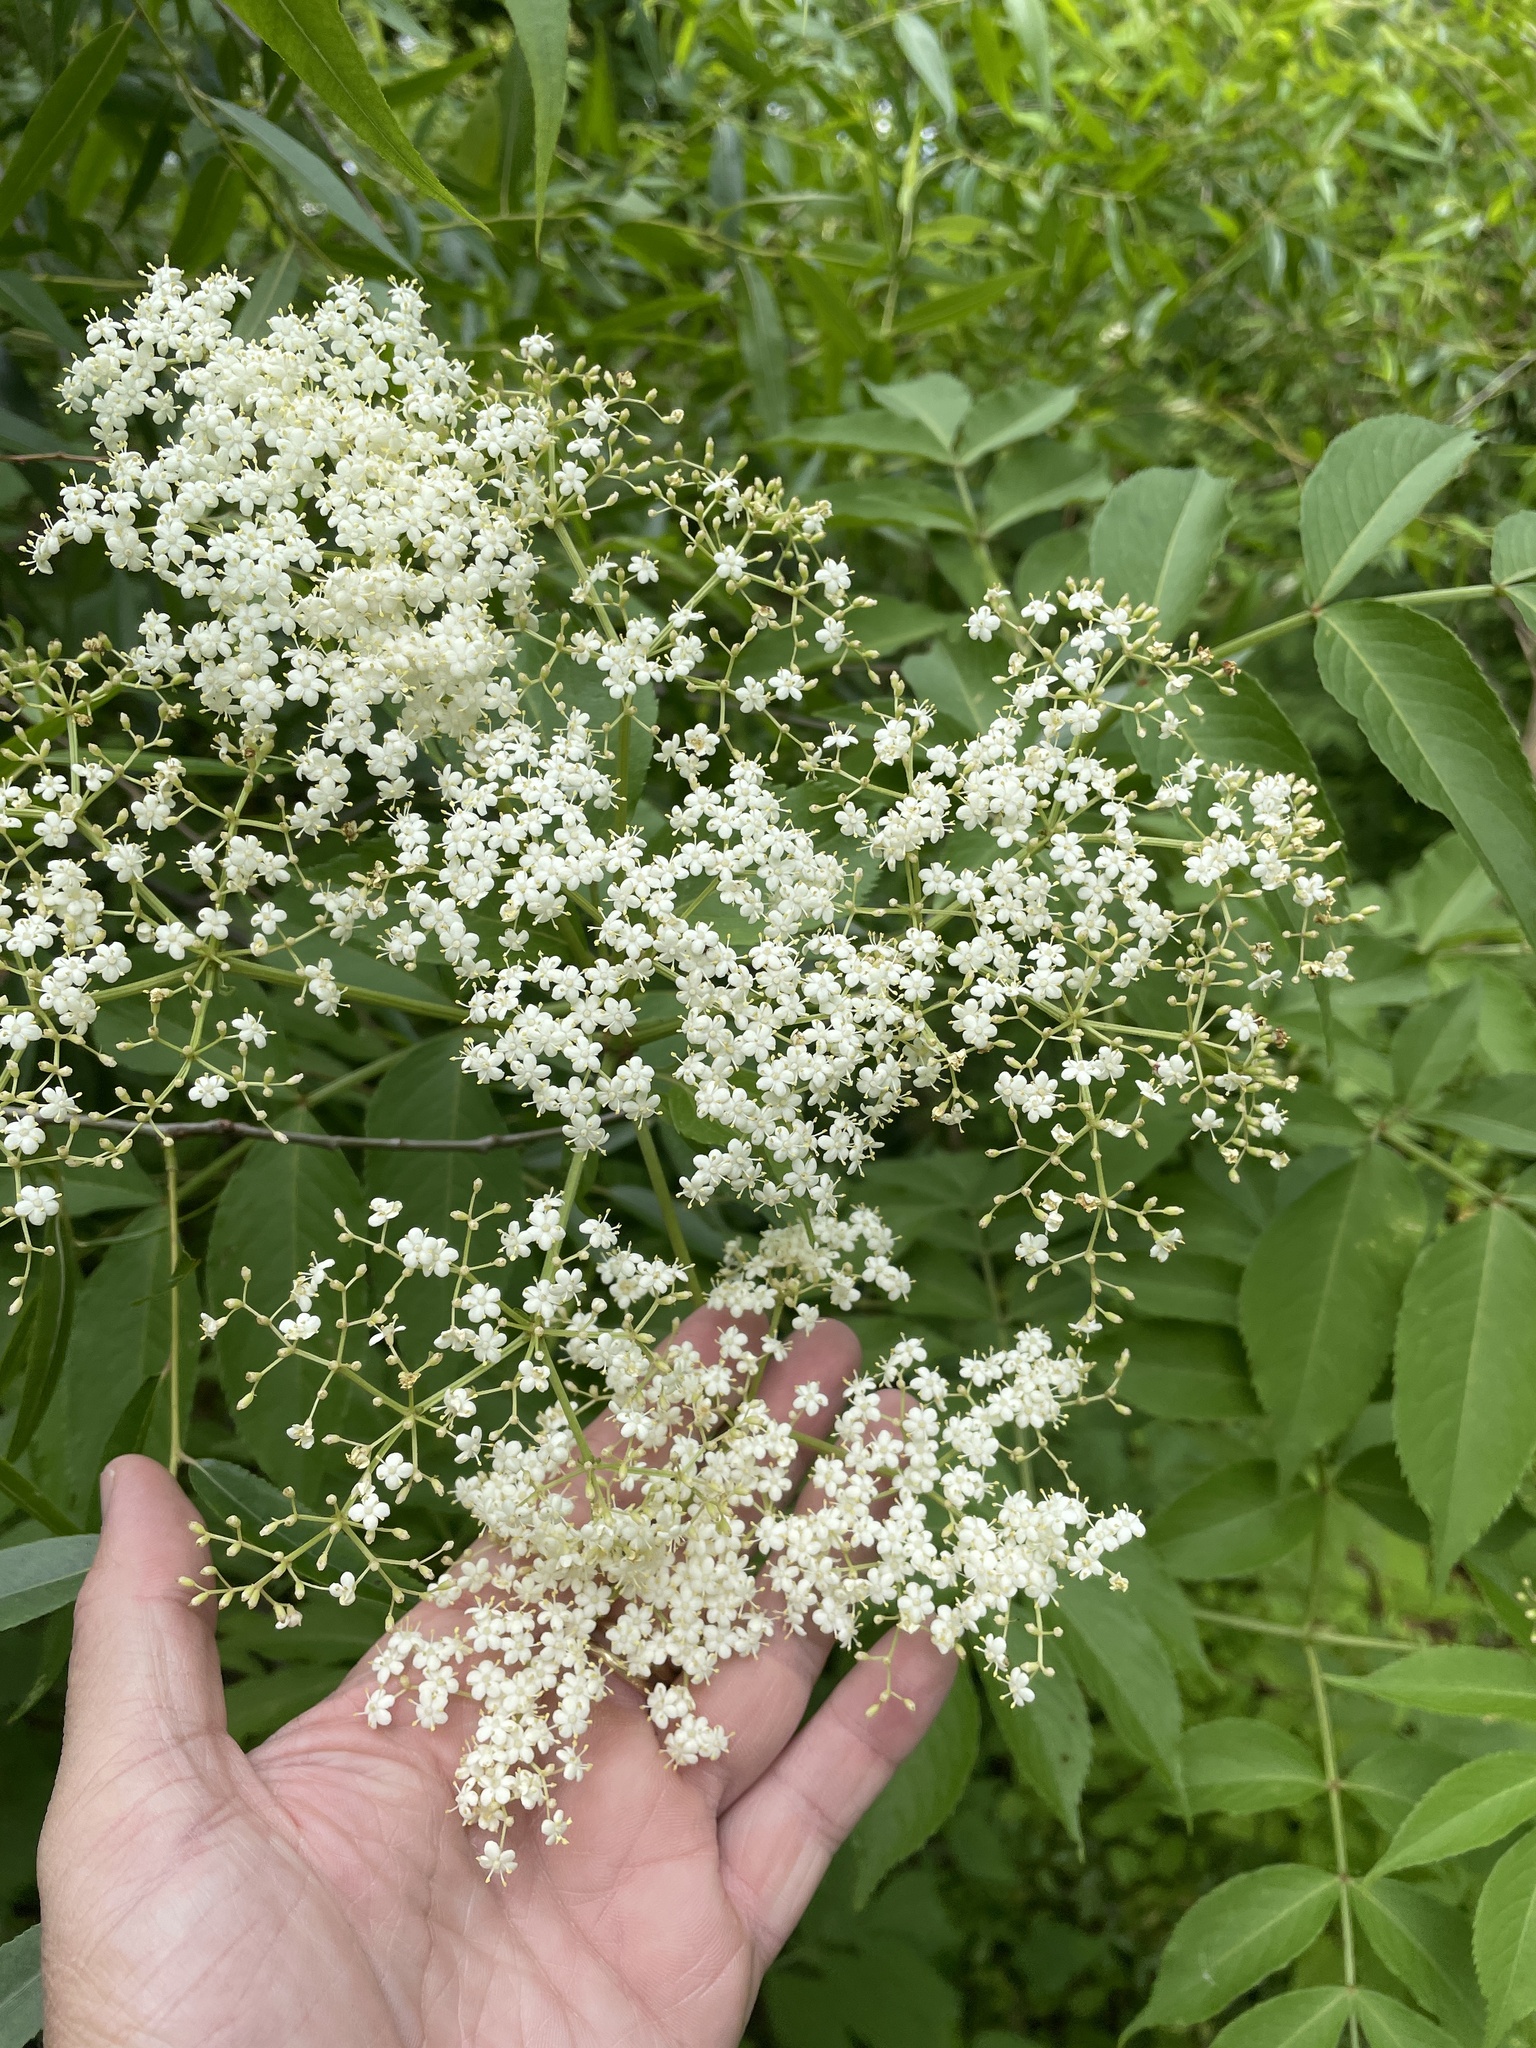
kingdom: Plantae
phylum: Tracheophyta
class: Magnoliopsida
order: Dipsacales
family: Viburnaceae
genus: Sambucus
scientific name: Sambucus canadensis
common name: American elder
